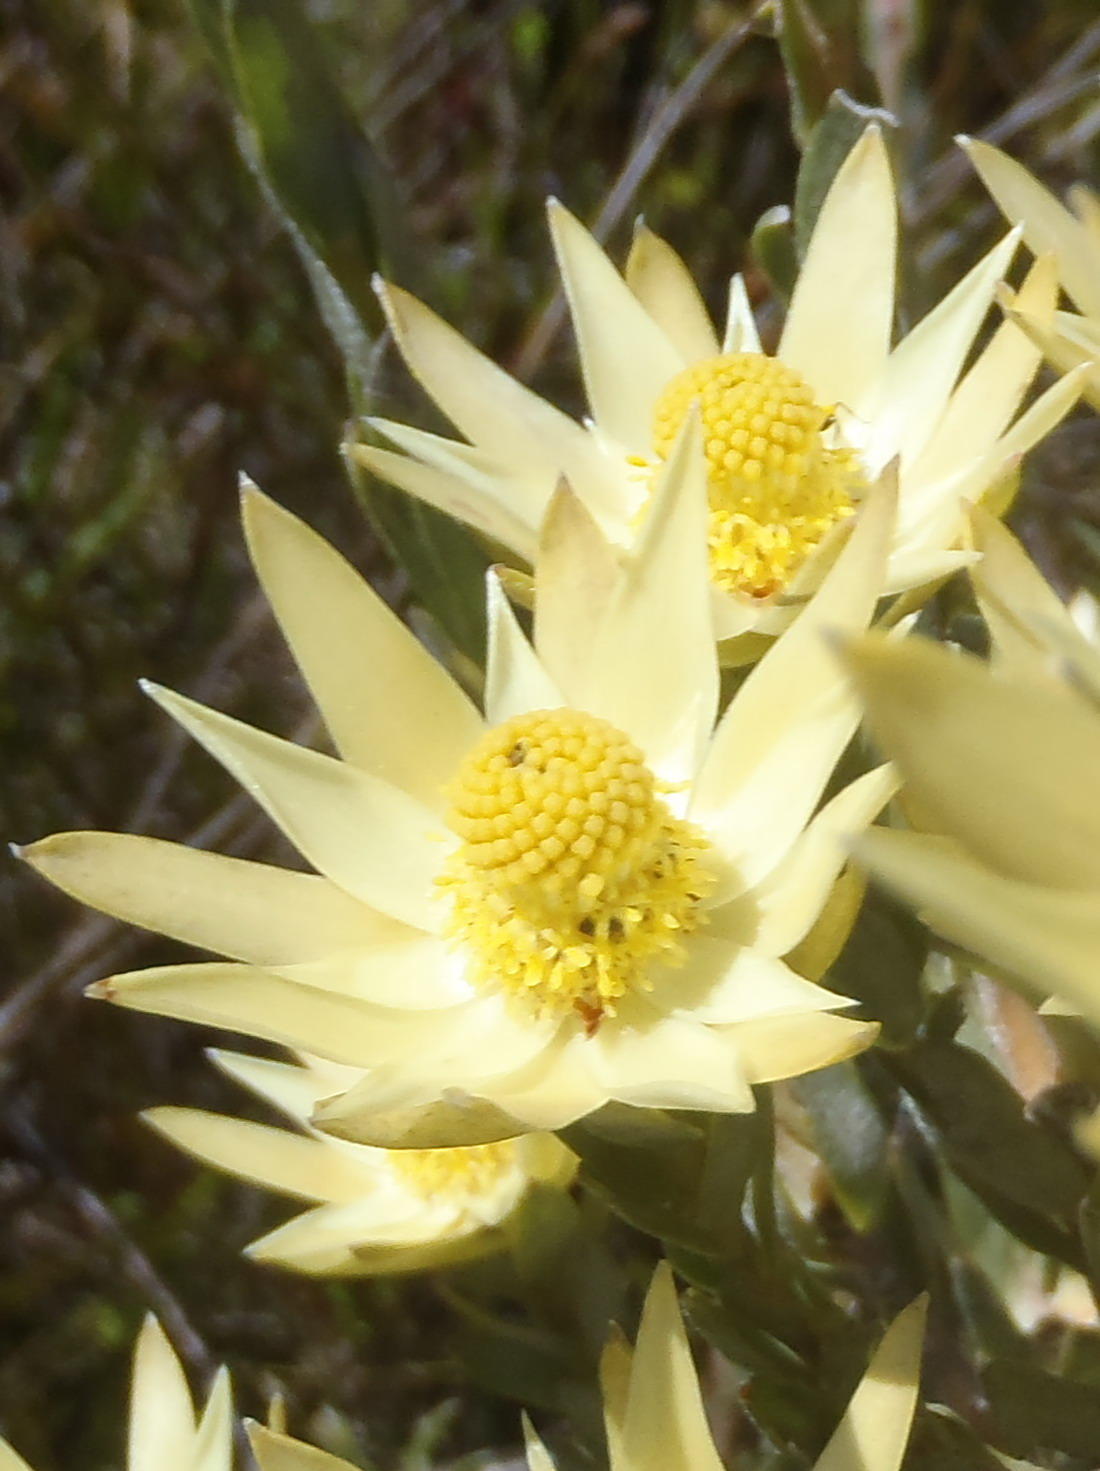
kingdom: Plantae
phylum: Tracheophyta
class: Magnoliopsida
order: Proteales
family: Proteaceae
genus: Leucadendron
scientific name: Leucadendron uliginosum
